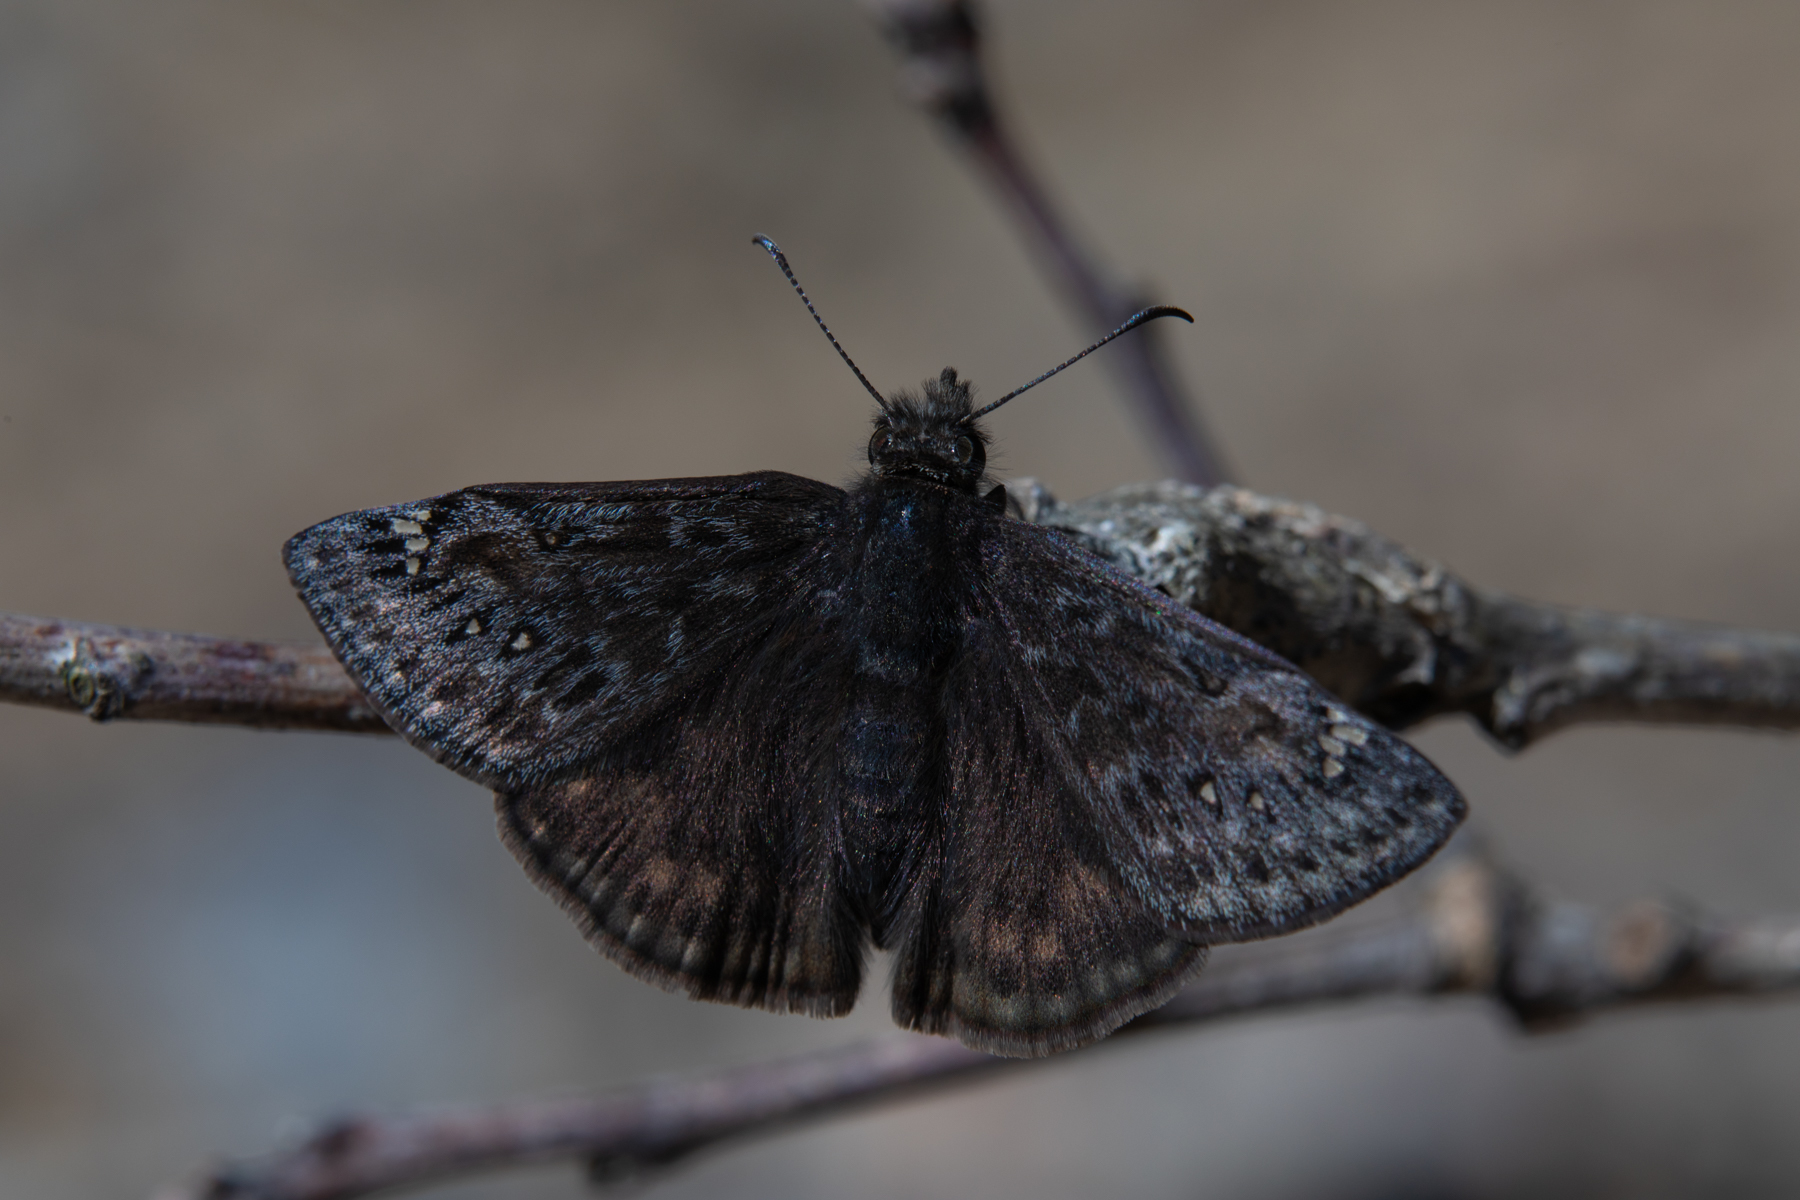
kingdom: Animalia
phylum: Arthropoda
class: Insecta
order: Lepidoptera
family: Hesperiidae
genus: Erynnis
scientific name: Erynnis juvenalis
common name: Juvenal's duskywing
